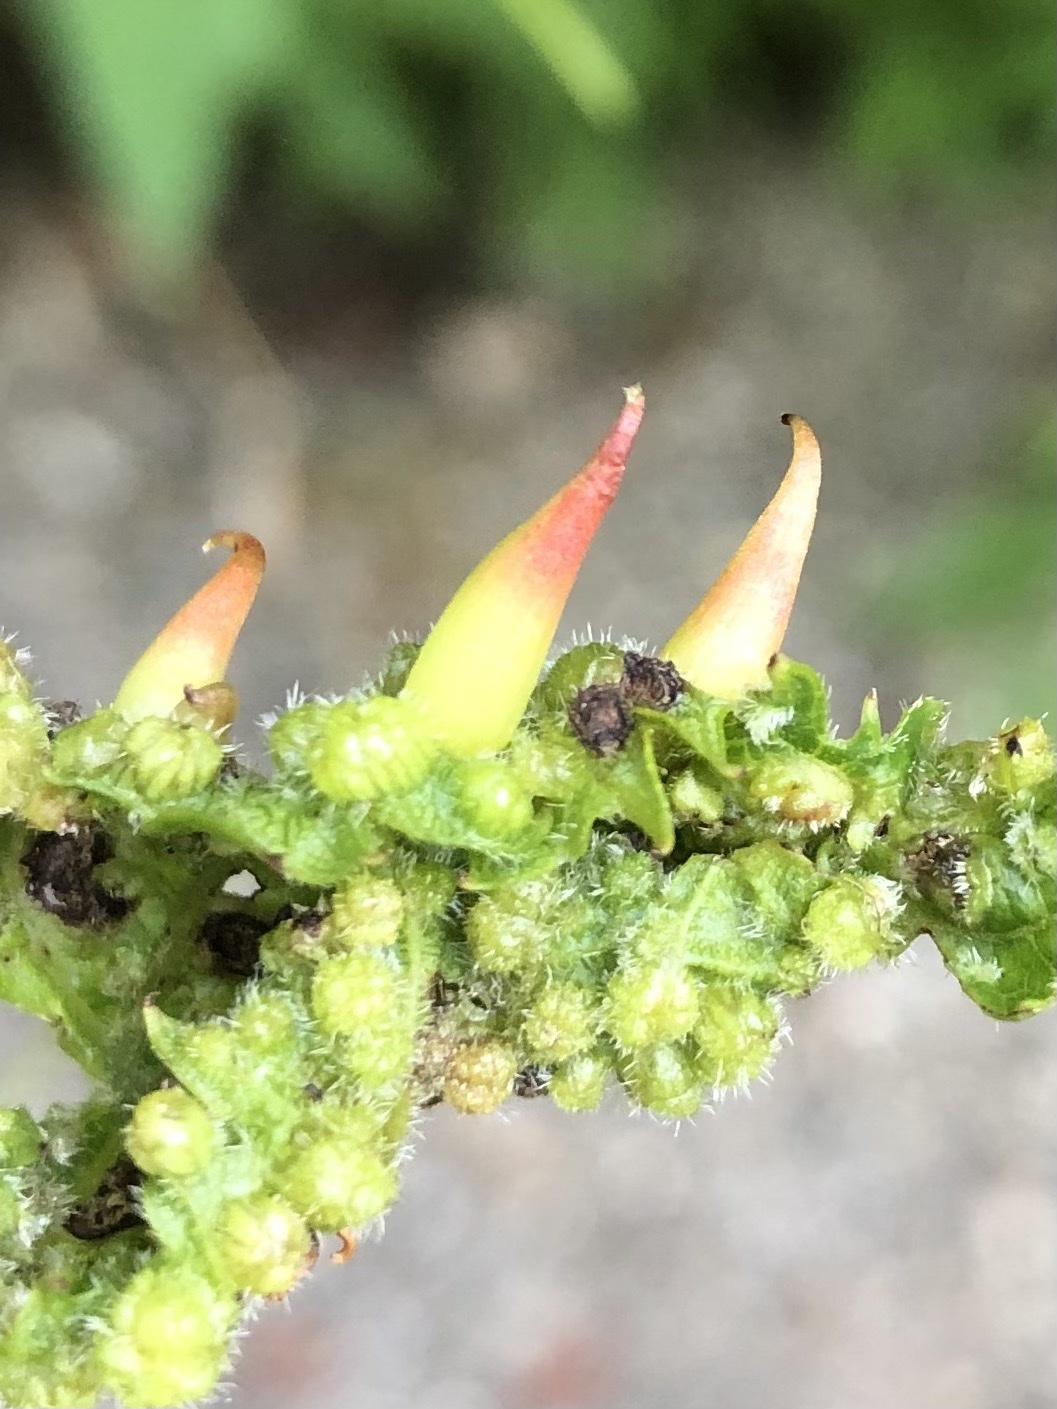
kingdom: Animalia
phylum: Arthropoda
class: Insecta
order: Diptera
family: Cecidomyiidae
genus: Ampelomyia
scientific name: Ampelomyia viticola
